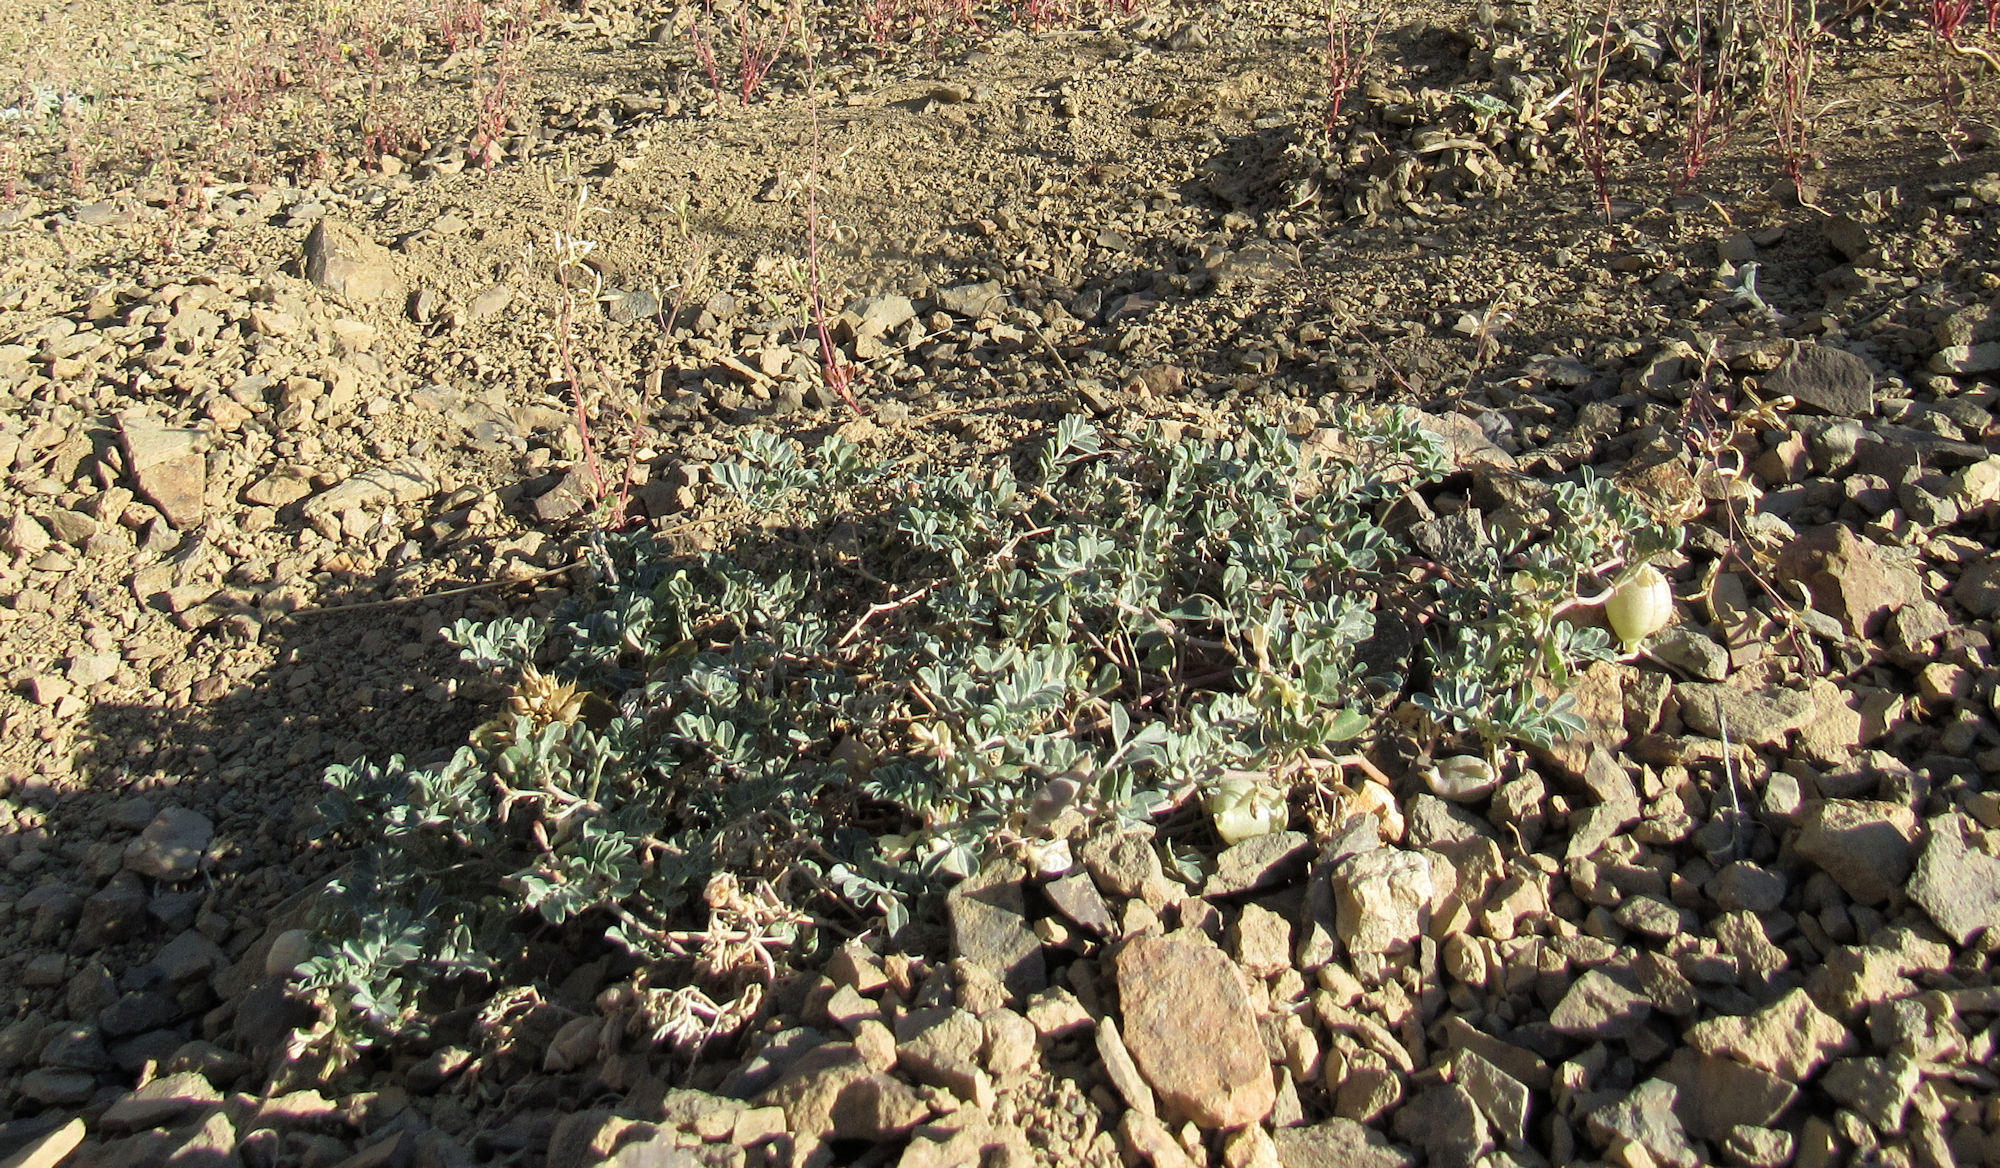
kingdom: Plantae
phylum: Tracheophyta
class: Magnoliopsida
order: Fabales
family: Fabaceae
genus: Astragalus
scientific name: Astragalus amblytropis
